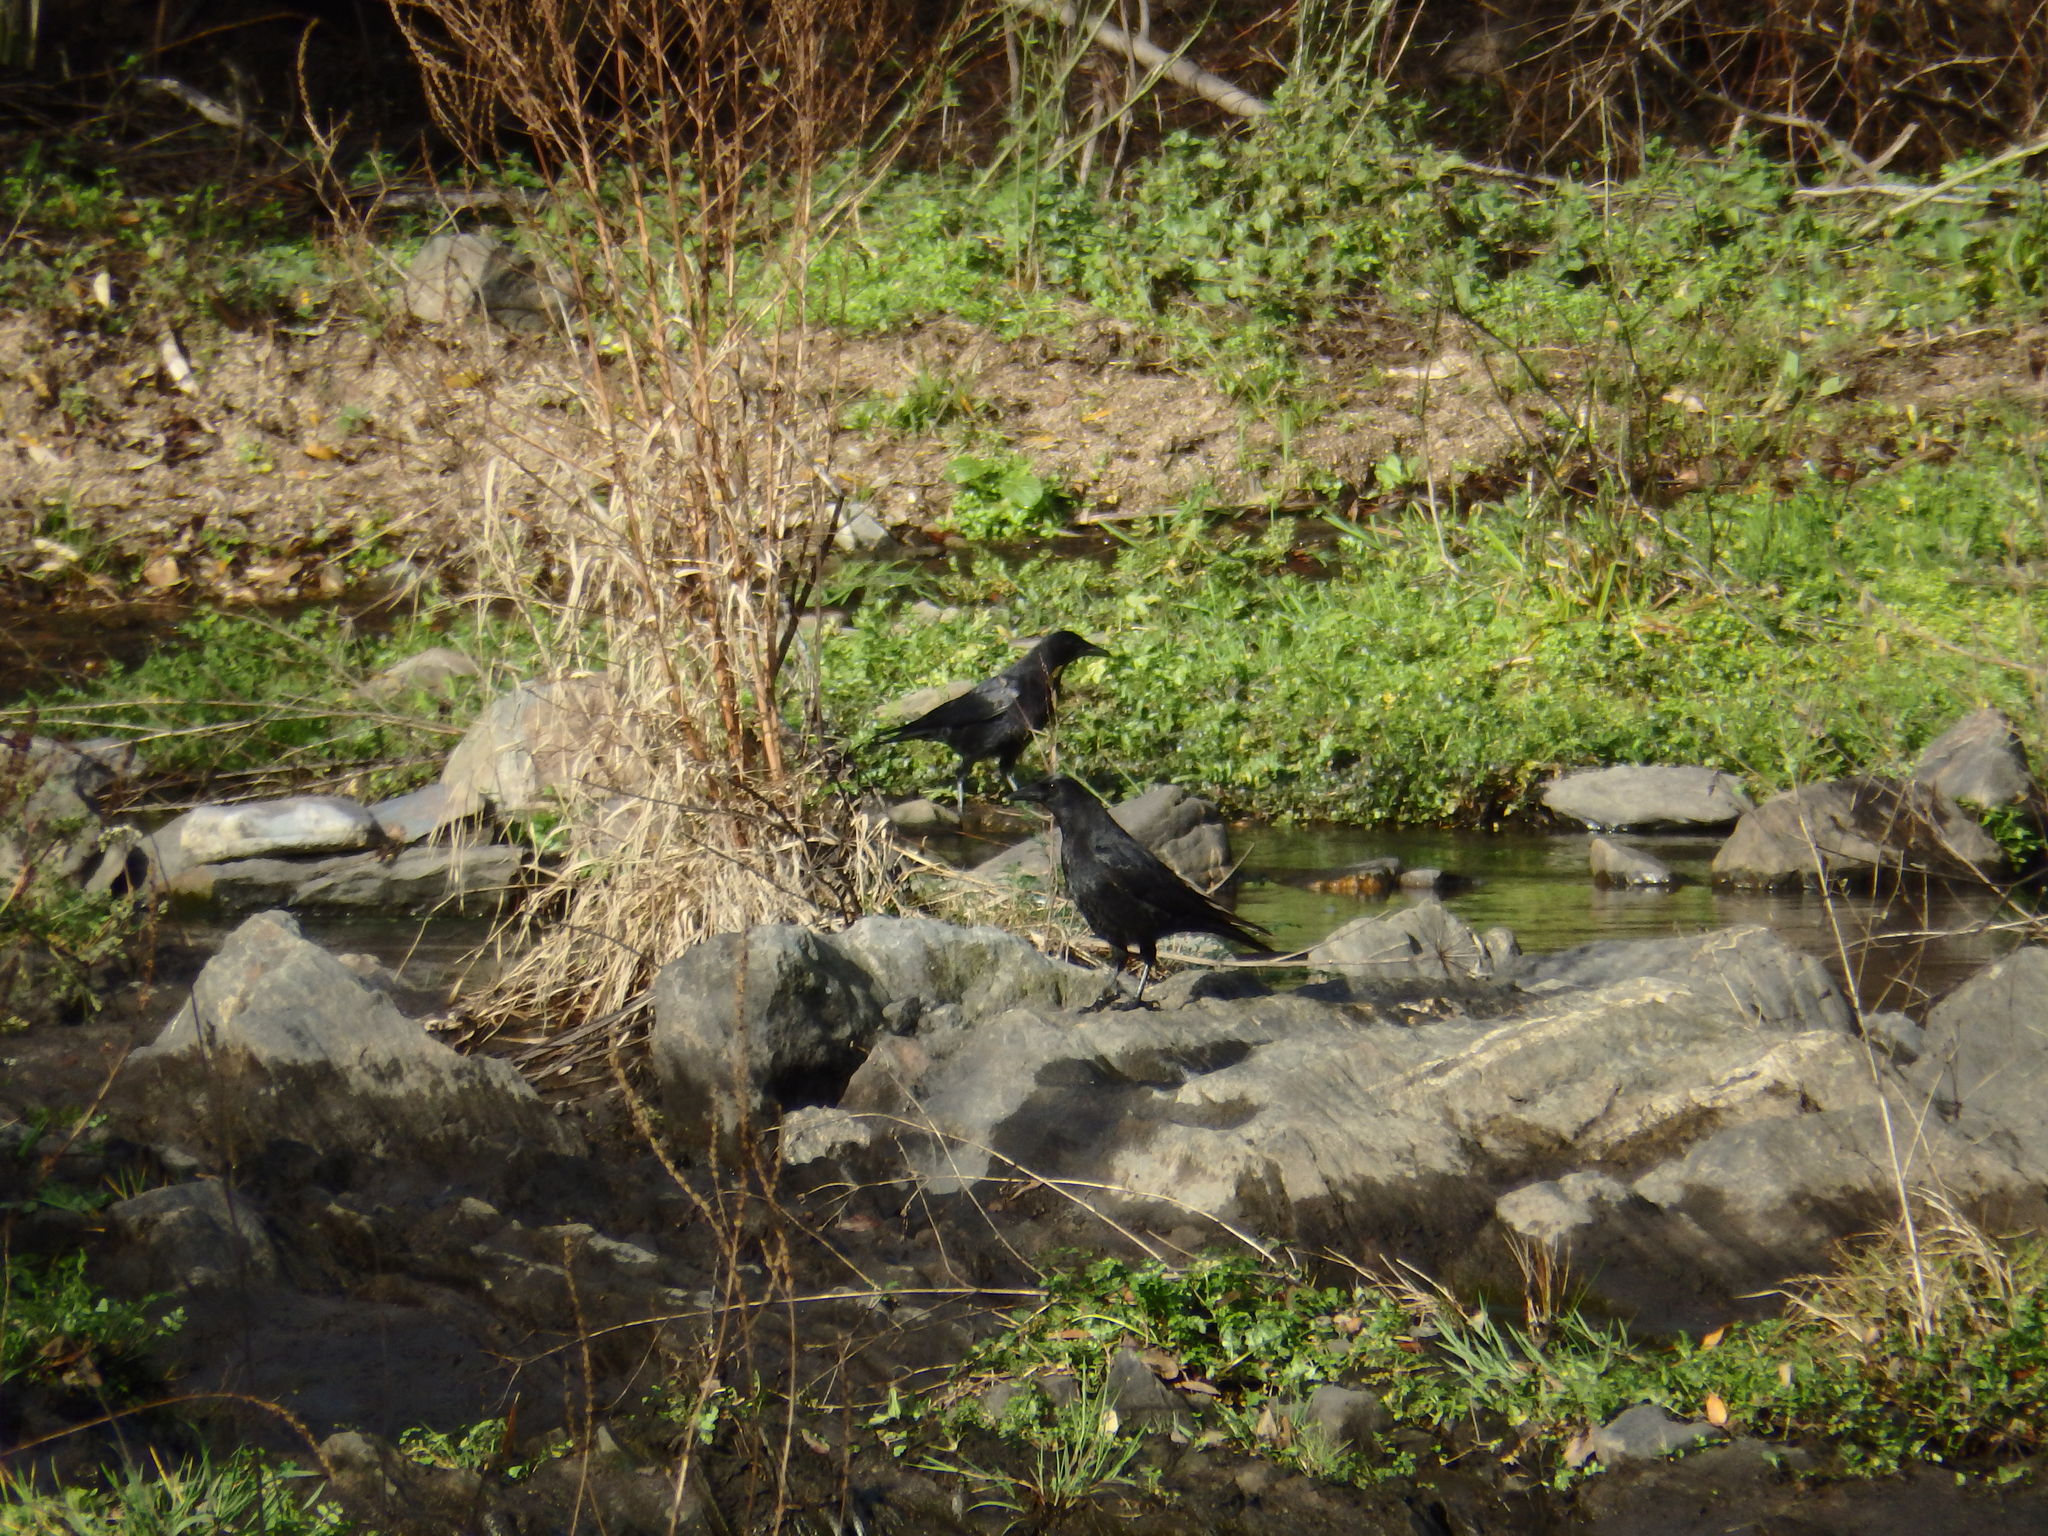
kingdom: Animalia
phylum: Chordata
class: Aves
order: Passeriformes
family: Corvidae
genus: Corvus
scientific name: Corvus corone
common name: Carrion crow
